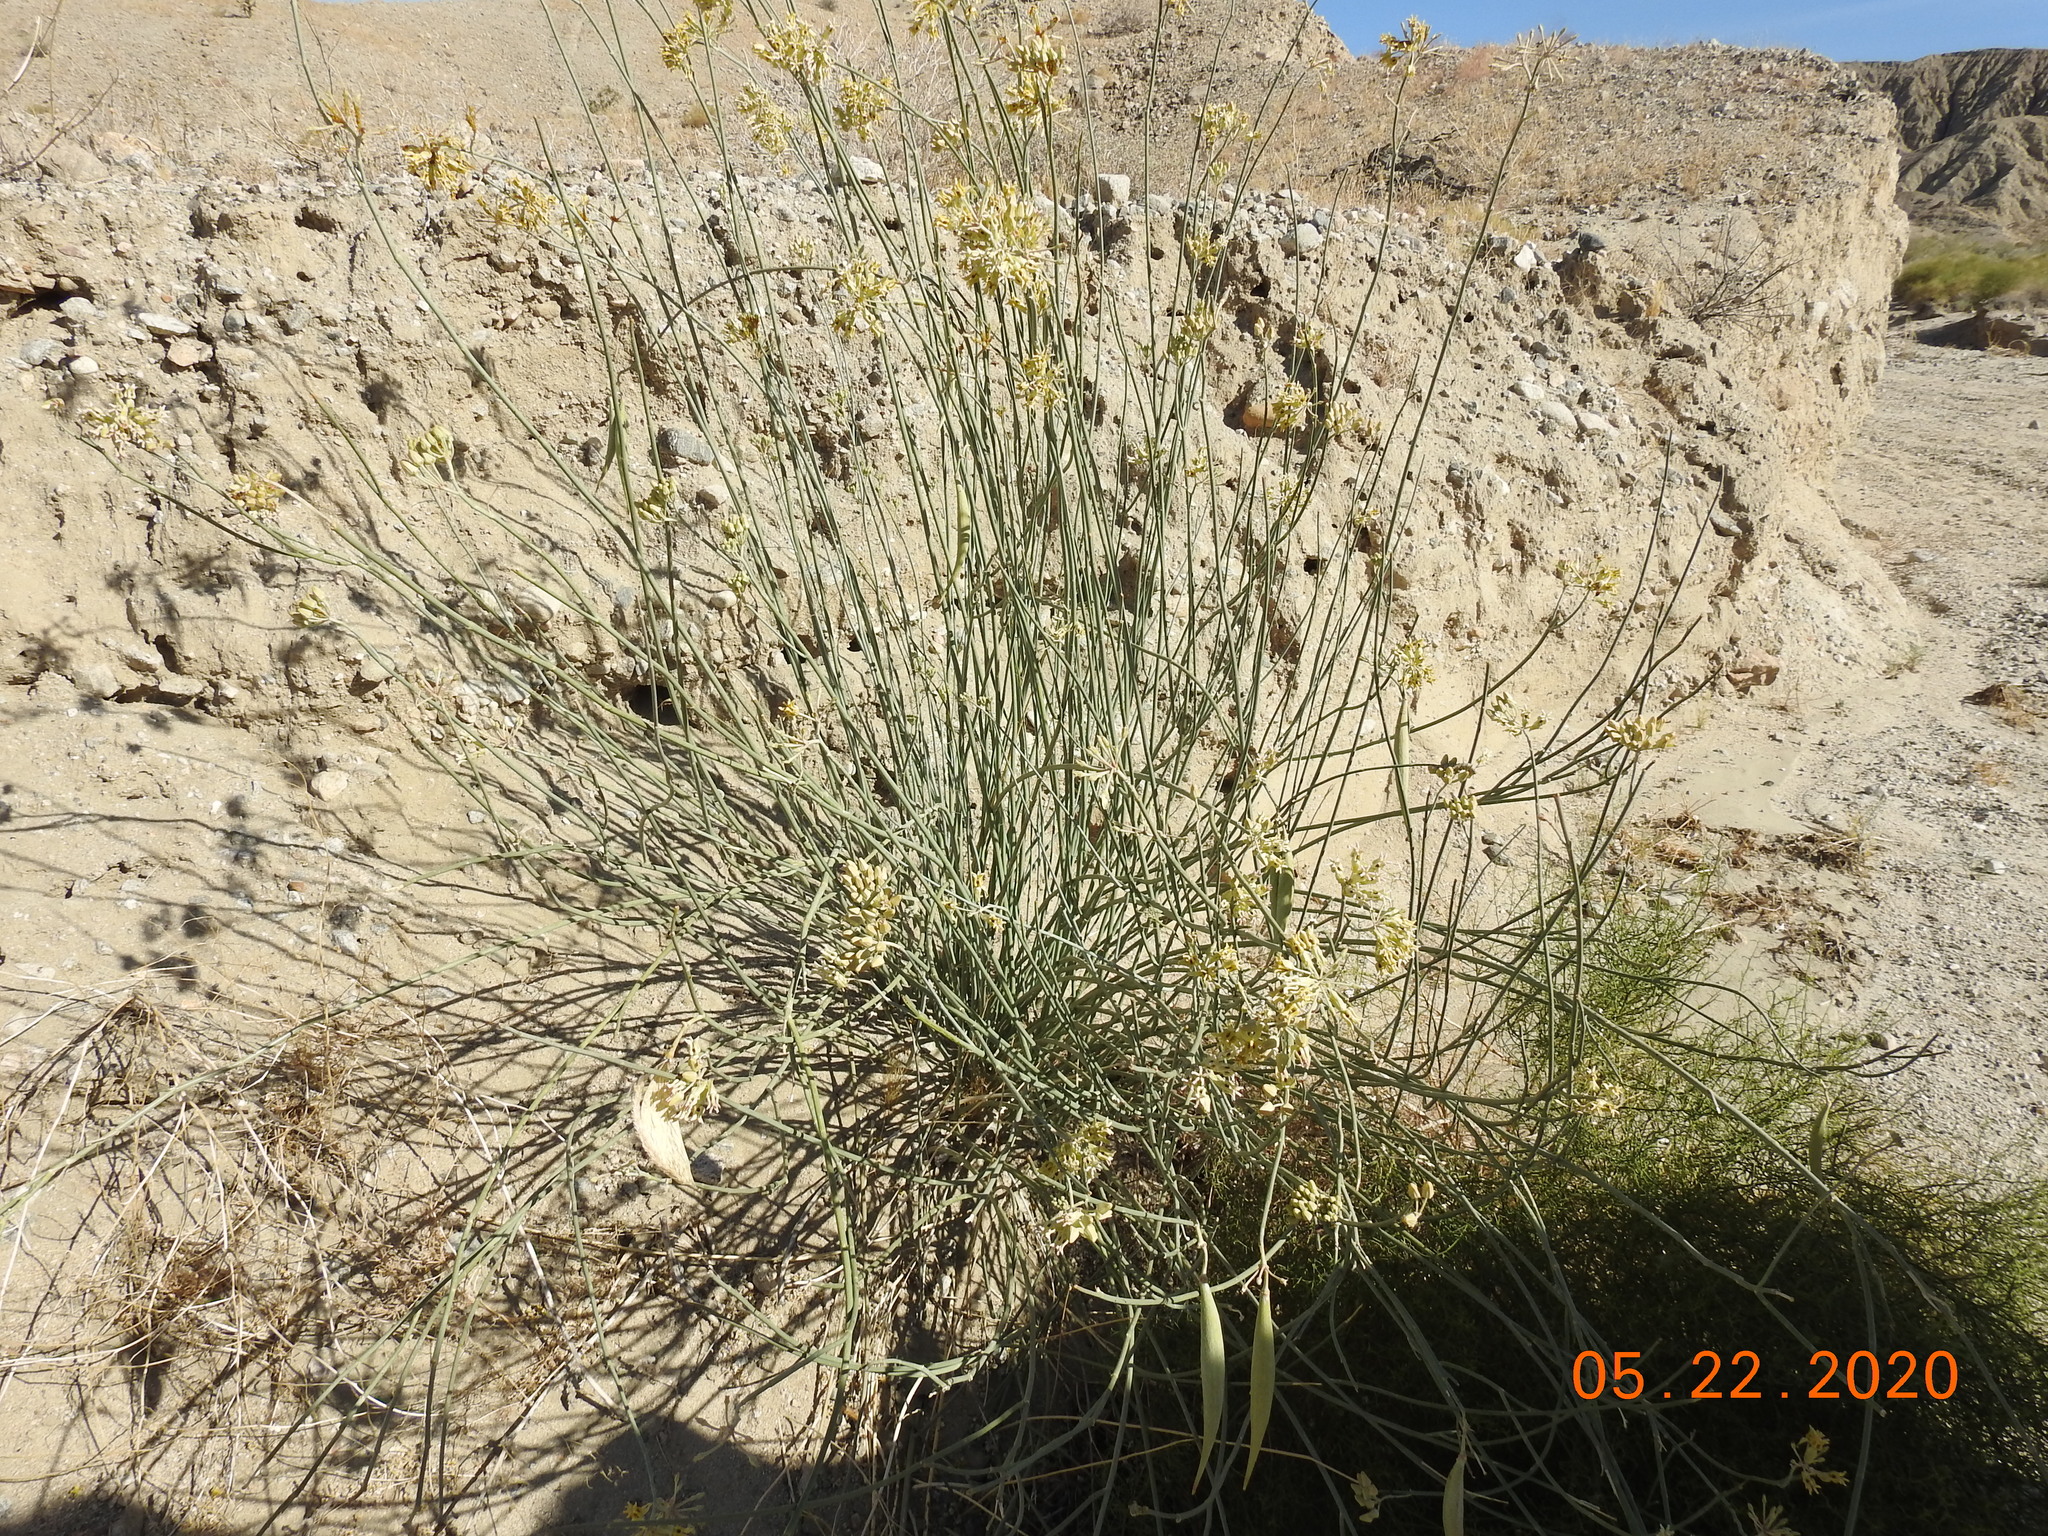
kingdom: Plantae
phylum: Tracheophyta
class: Magnoliopsida
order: Gentianales
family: Apocynaceae
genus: Asclepias
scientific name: Asclepias subulata
